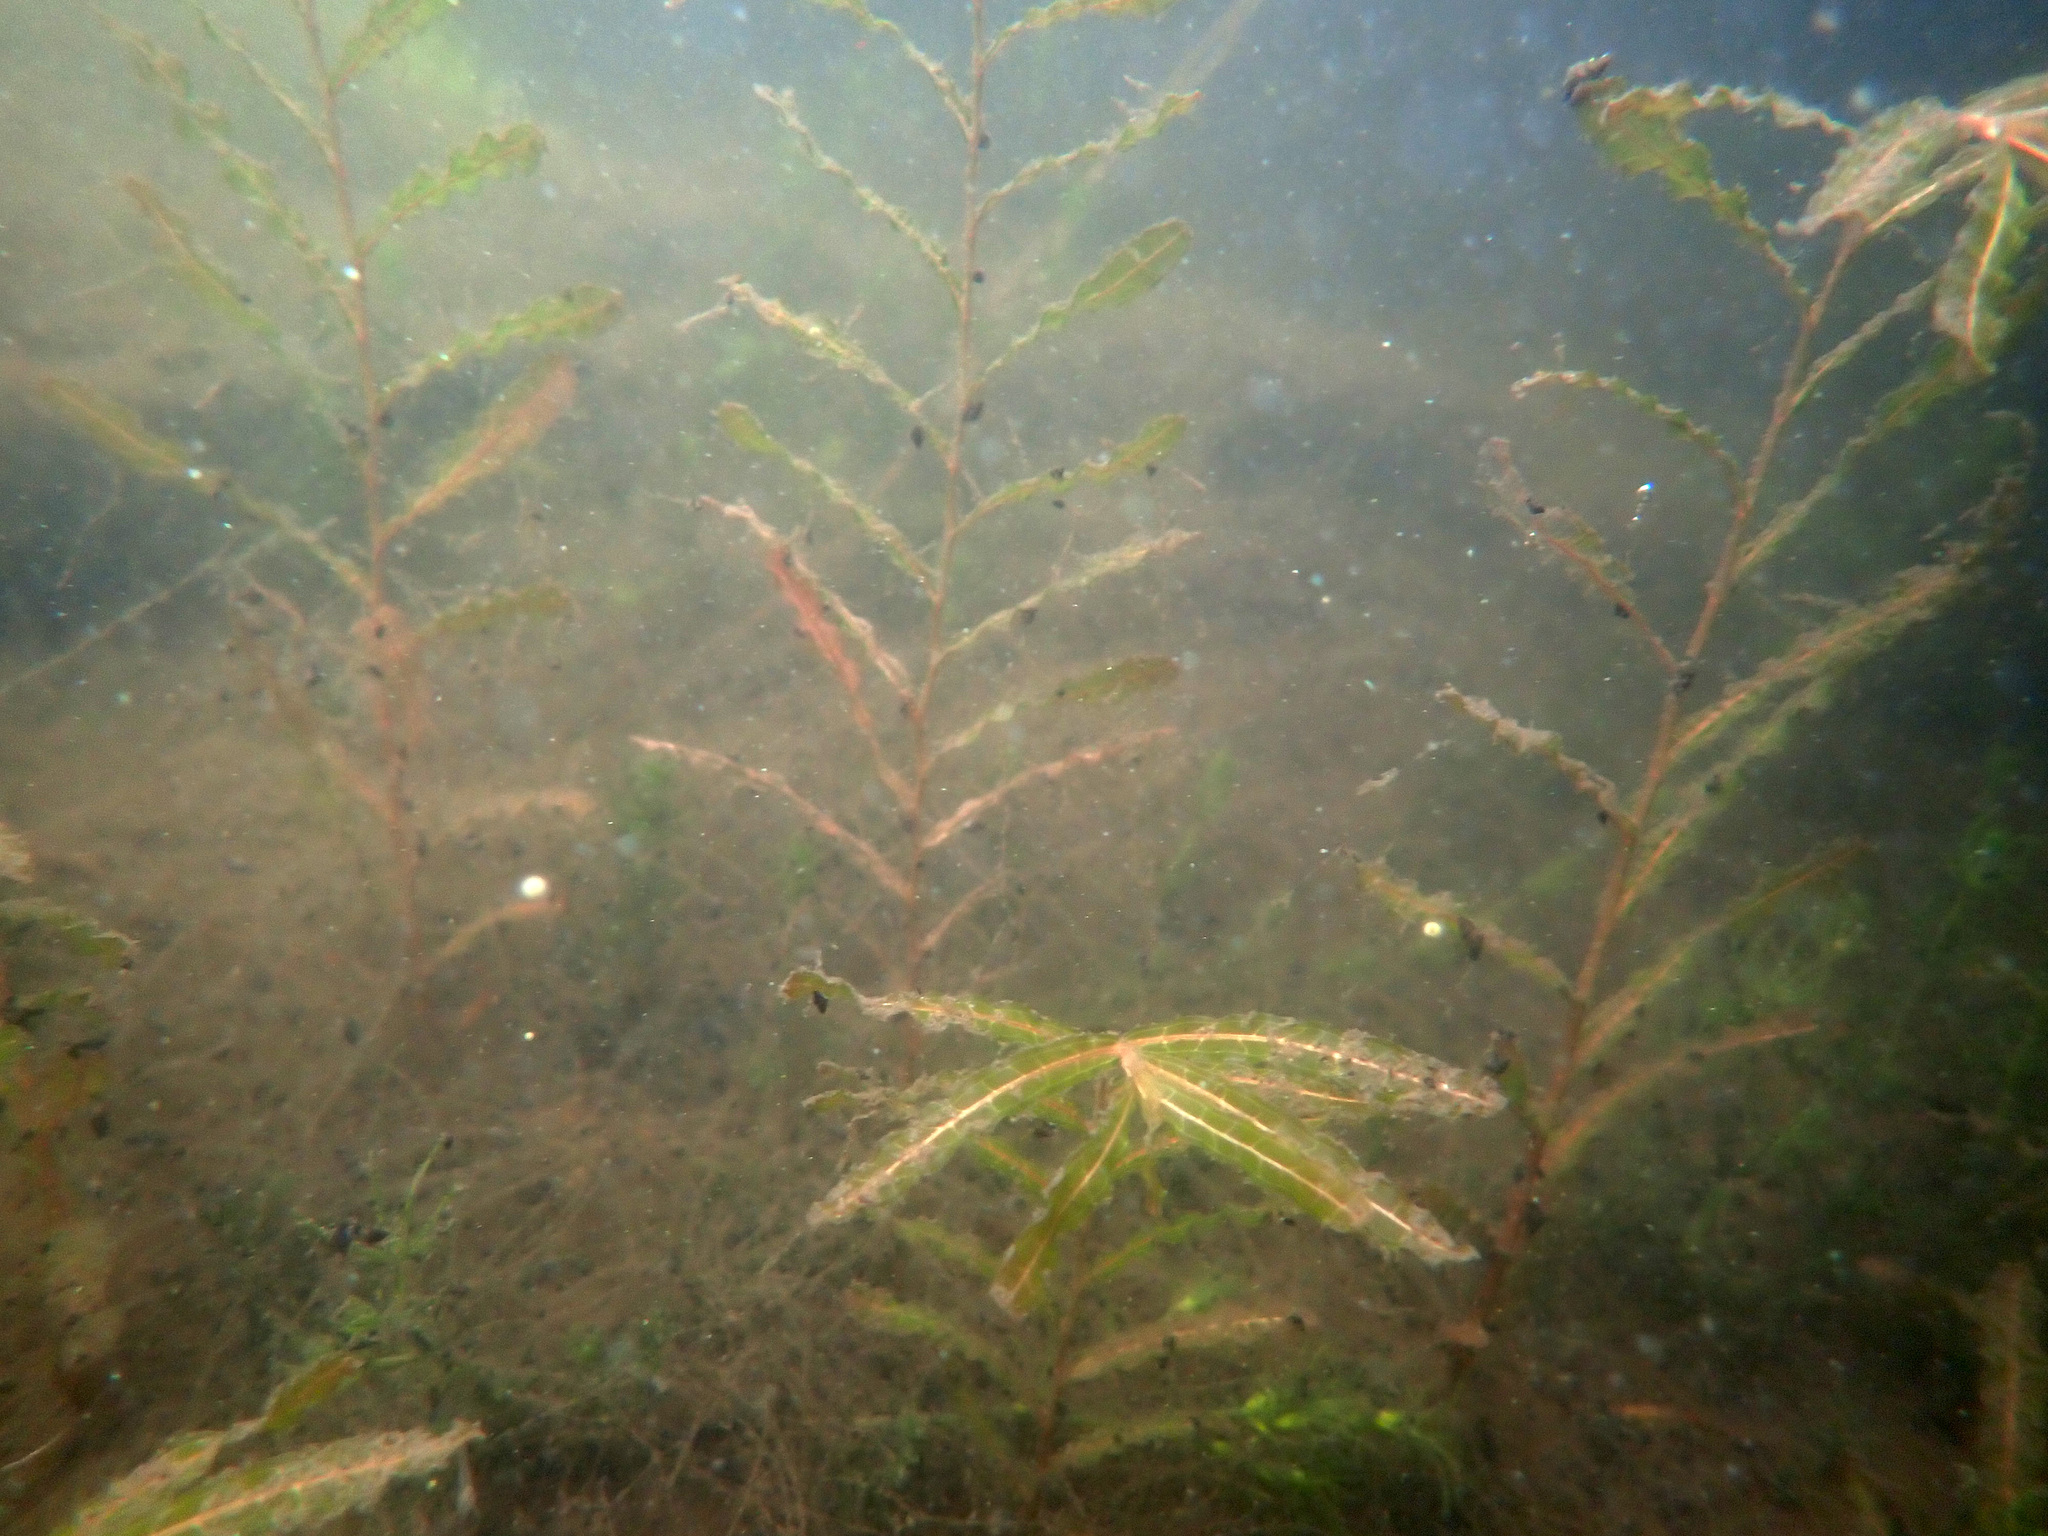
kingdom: Plantae
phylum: Tracheophyta
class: Liliopsida
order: Alismatales
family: Potamogetonaceae
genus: Potamogeton
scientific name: Potamogeton crispus
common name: Curled pondweed
